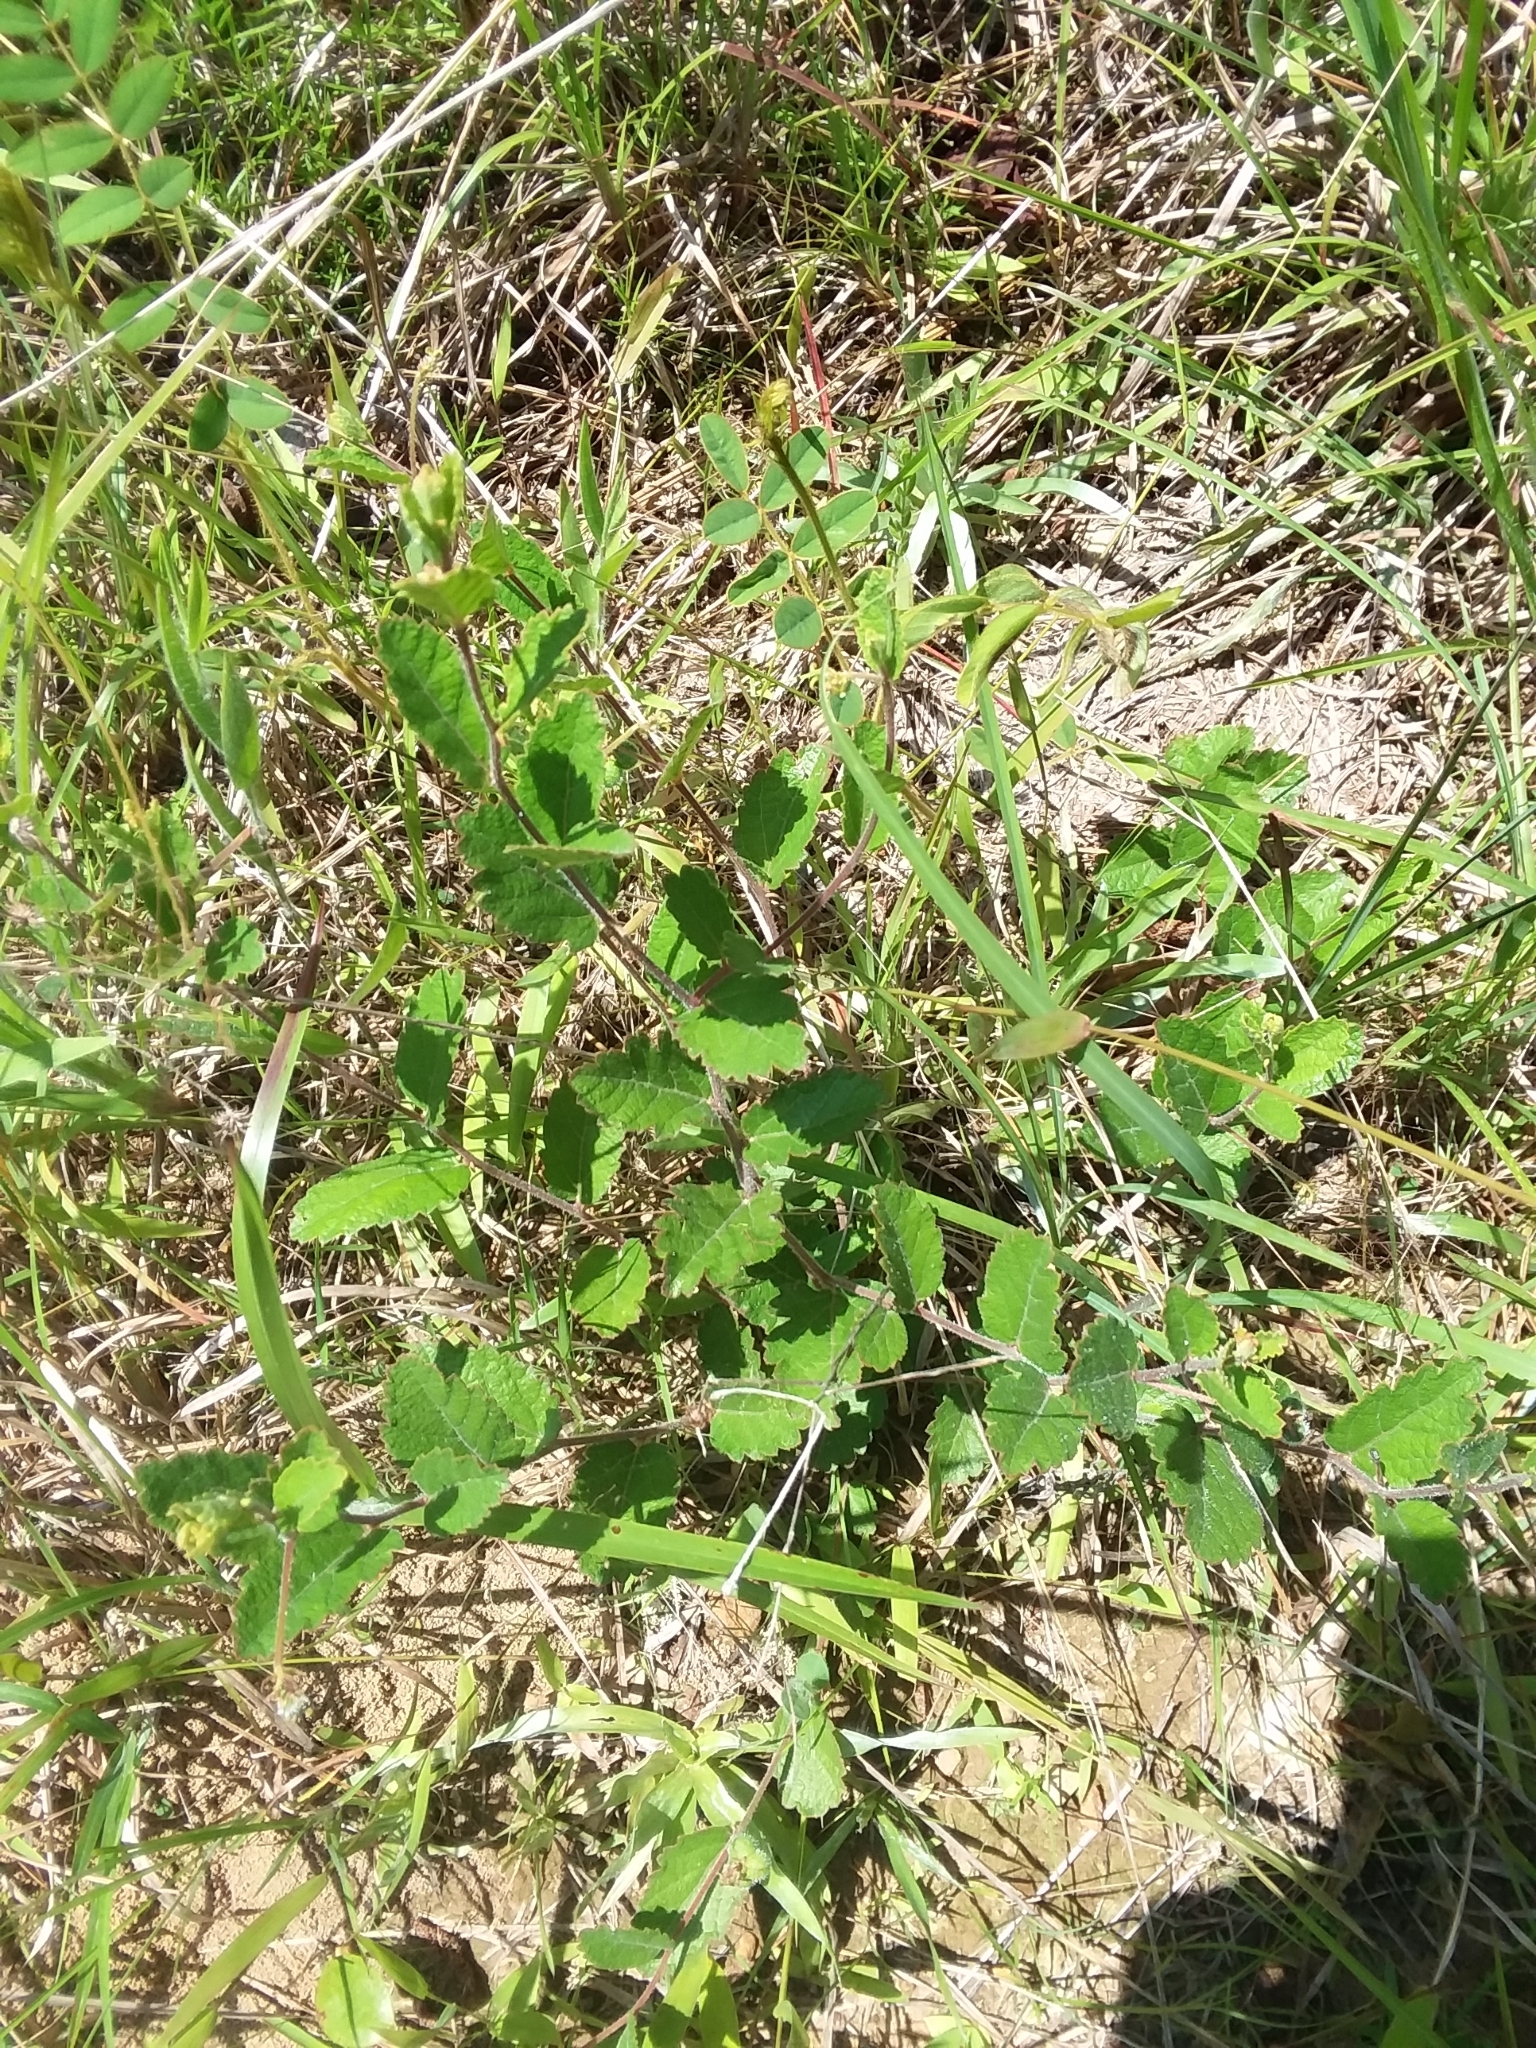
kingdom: Plantae
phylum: Tracheophyta
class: Magnoliopsida
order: Malpighiales
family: Euphorbiaceae
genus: Tragia
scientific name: Tragia smallii
